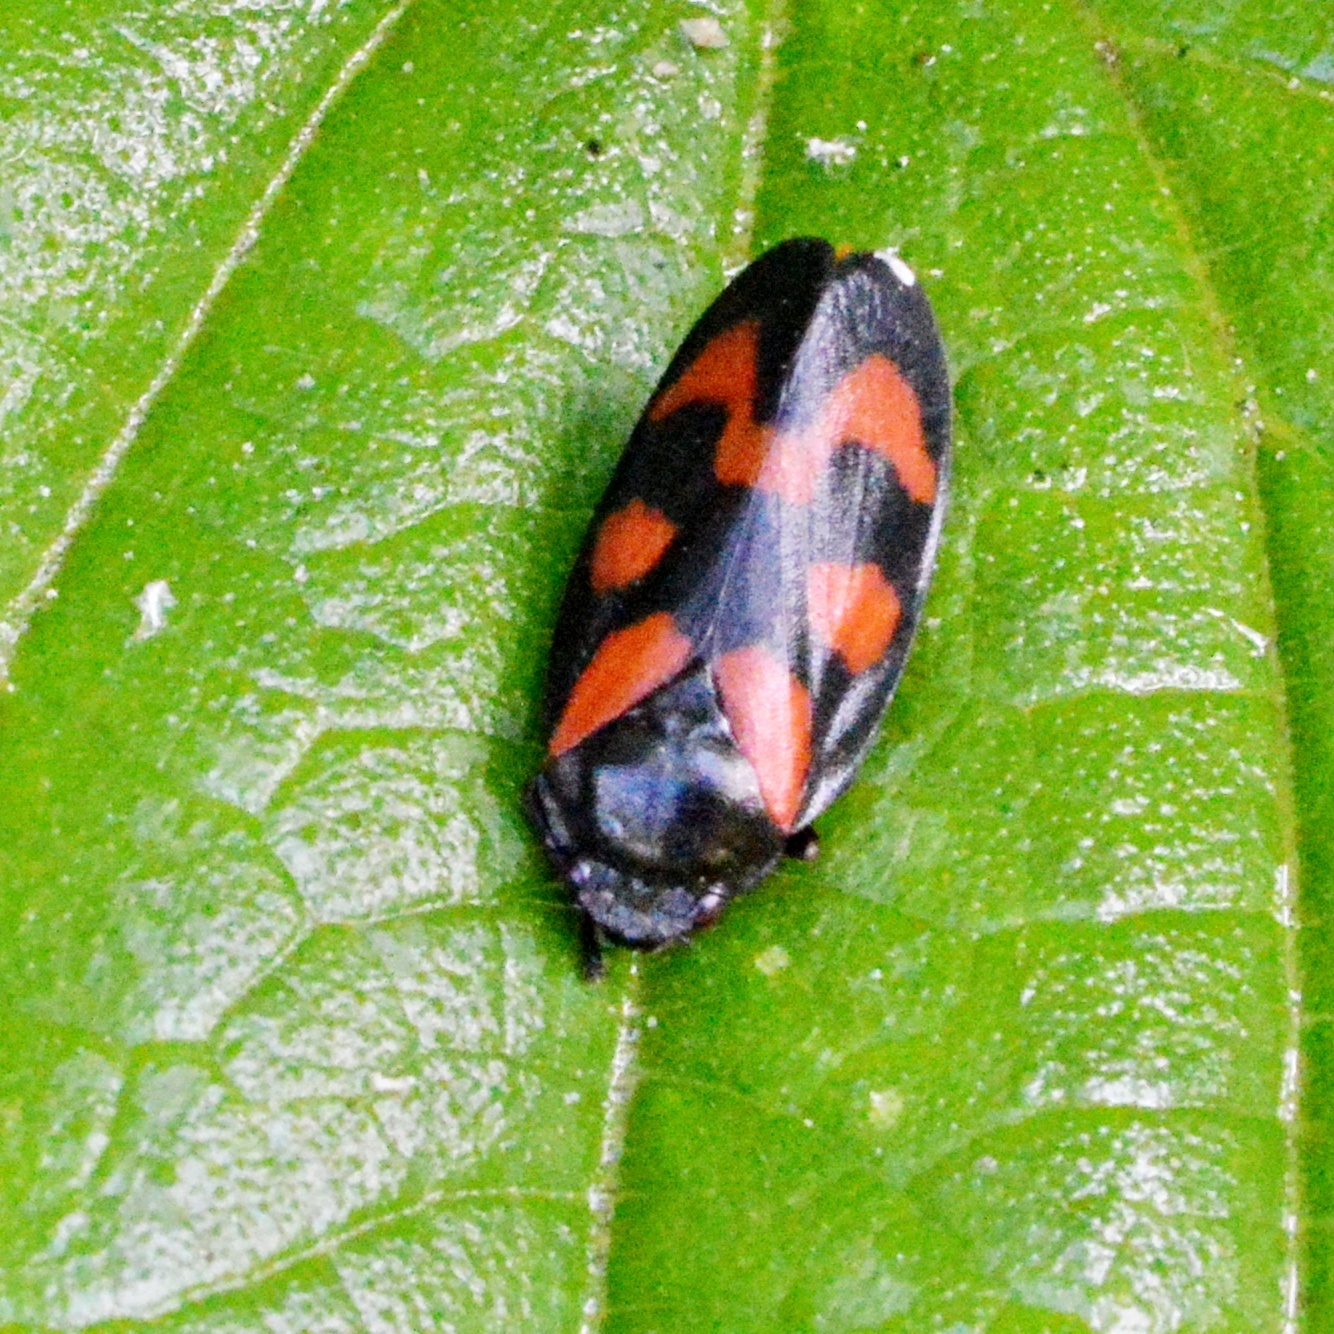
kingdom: Animalia
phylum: Arthropoda
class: Insecta
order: Hemiptera
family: Cercopidae
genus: Cercopis
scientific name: Cercopis vulnerata
